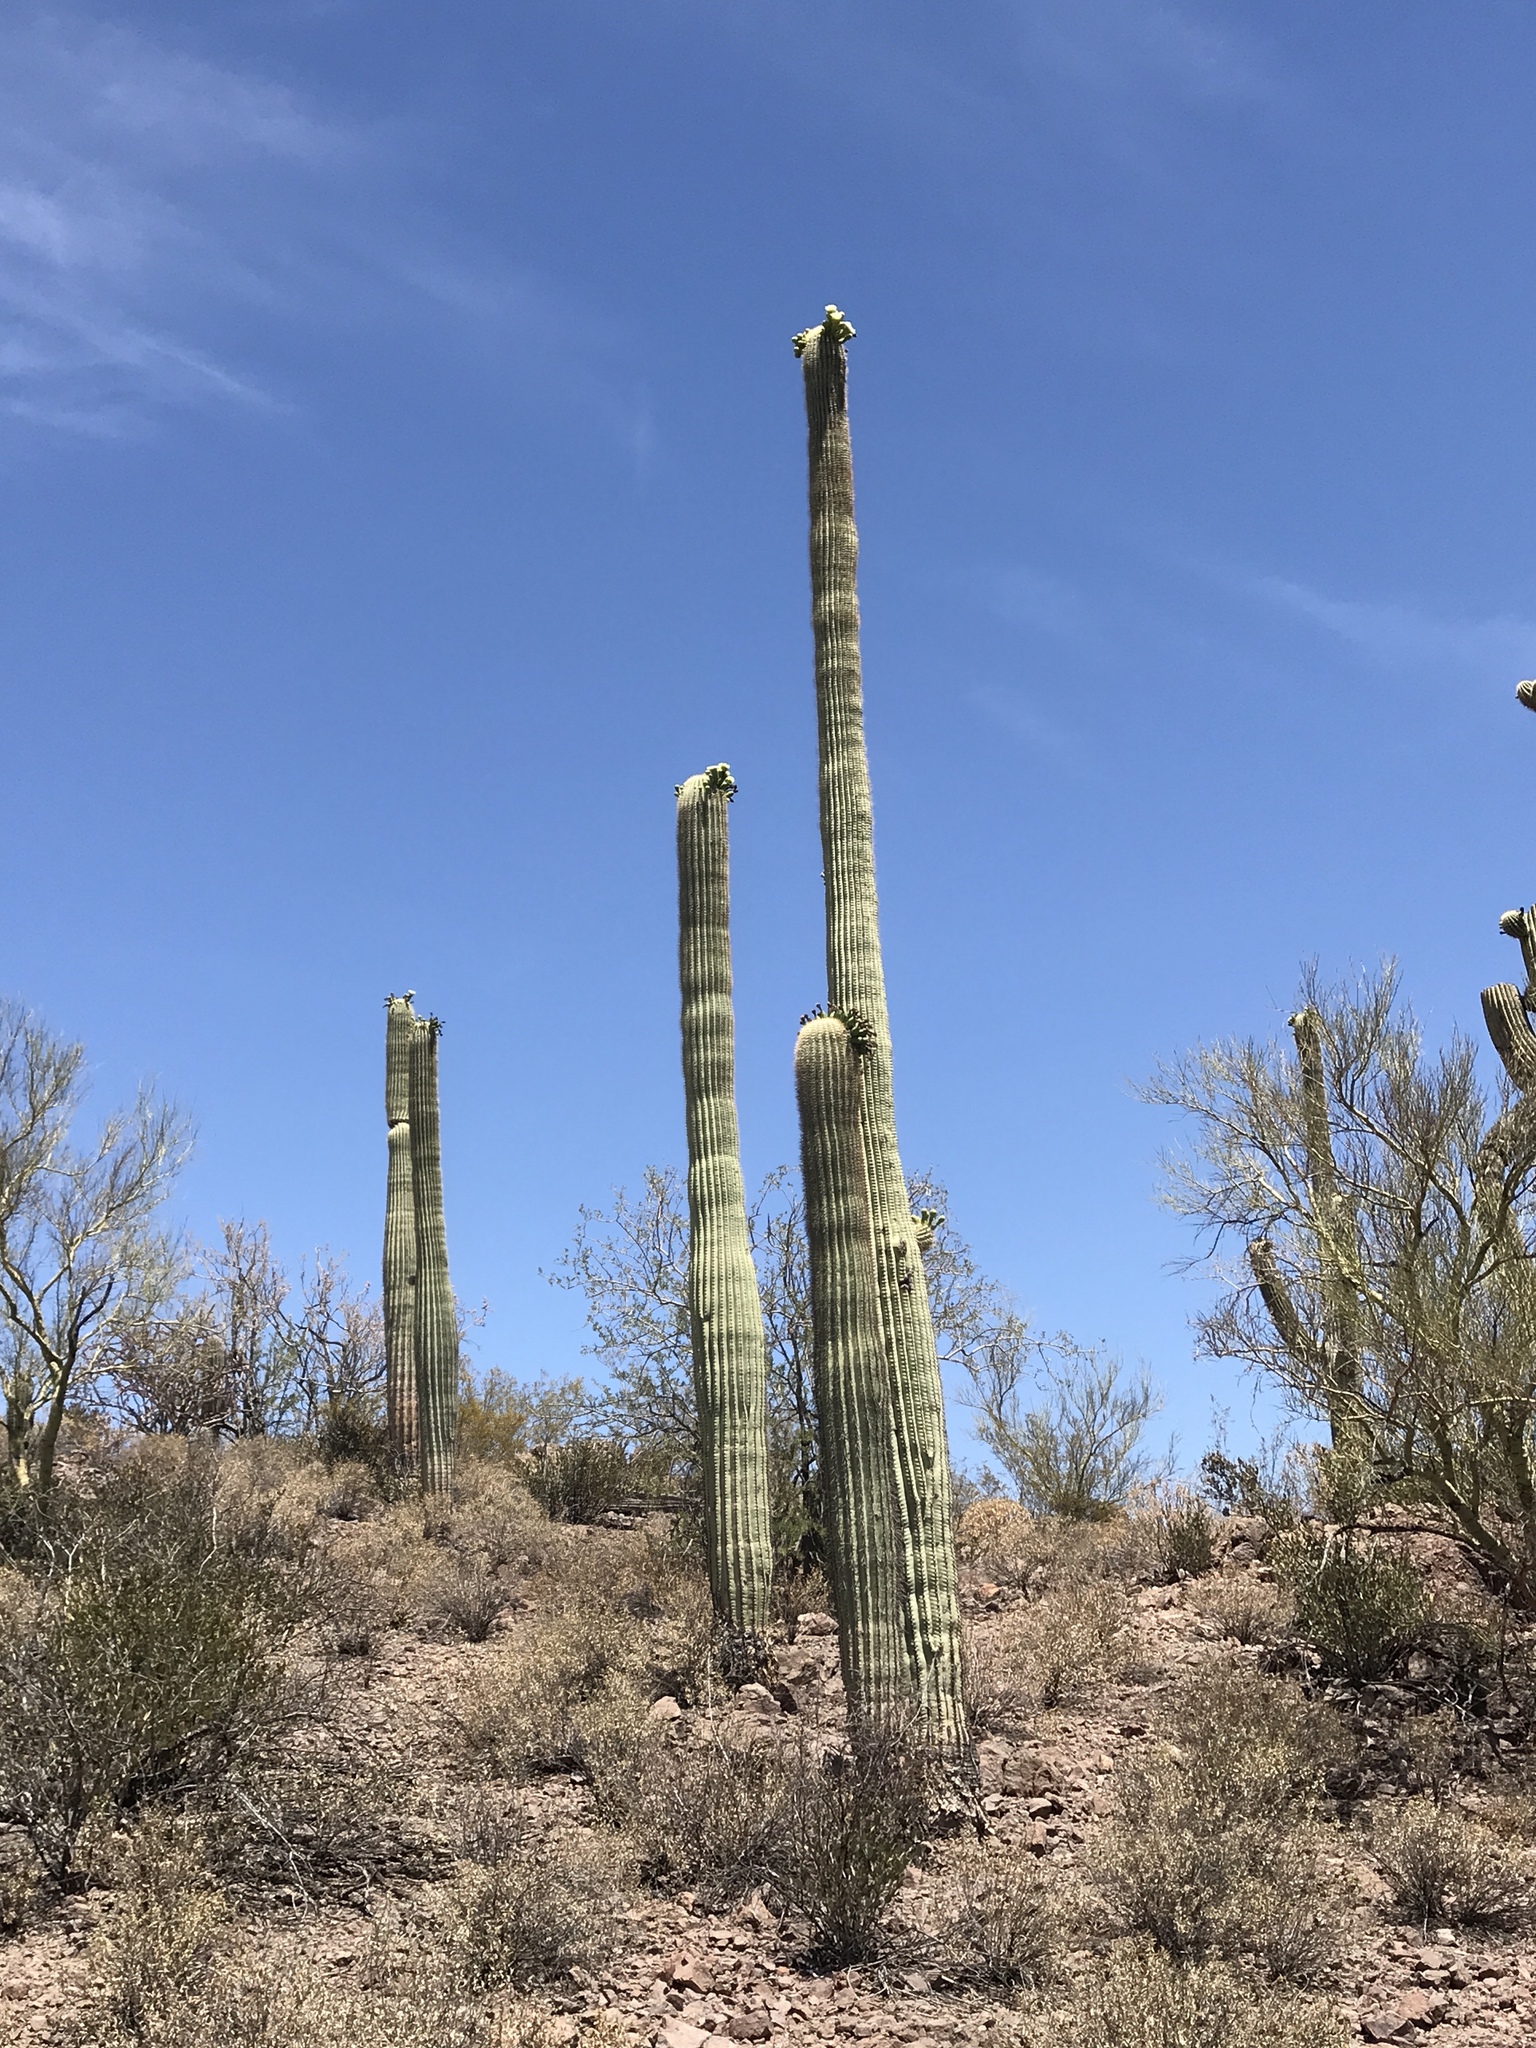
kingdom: Plantae
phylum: Tracheophyta
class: Magnoliopsida
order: Caryophyllales
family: Cactaceae
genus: Carnegiea
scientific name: Carnegiea gigantea
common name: Saguaro
